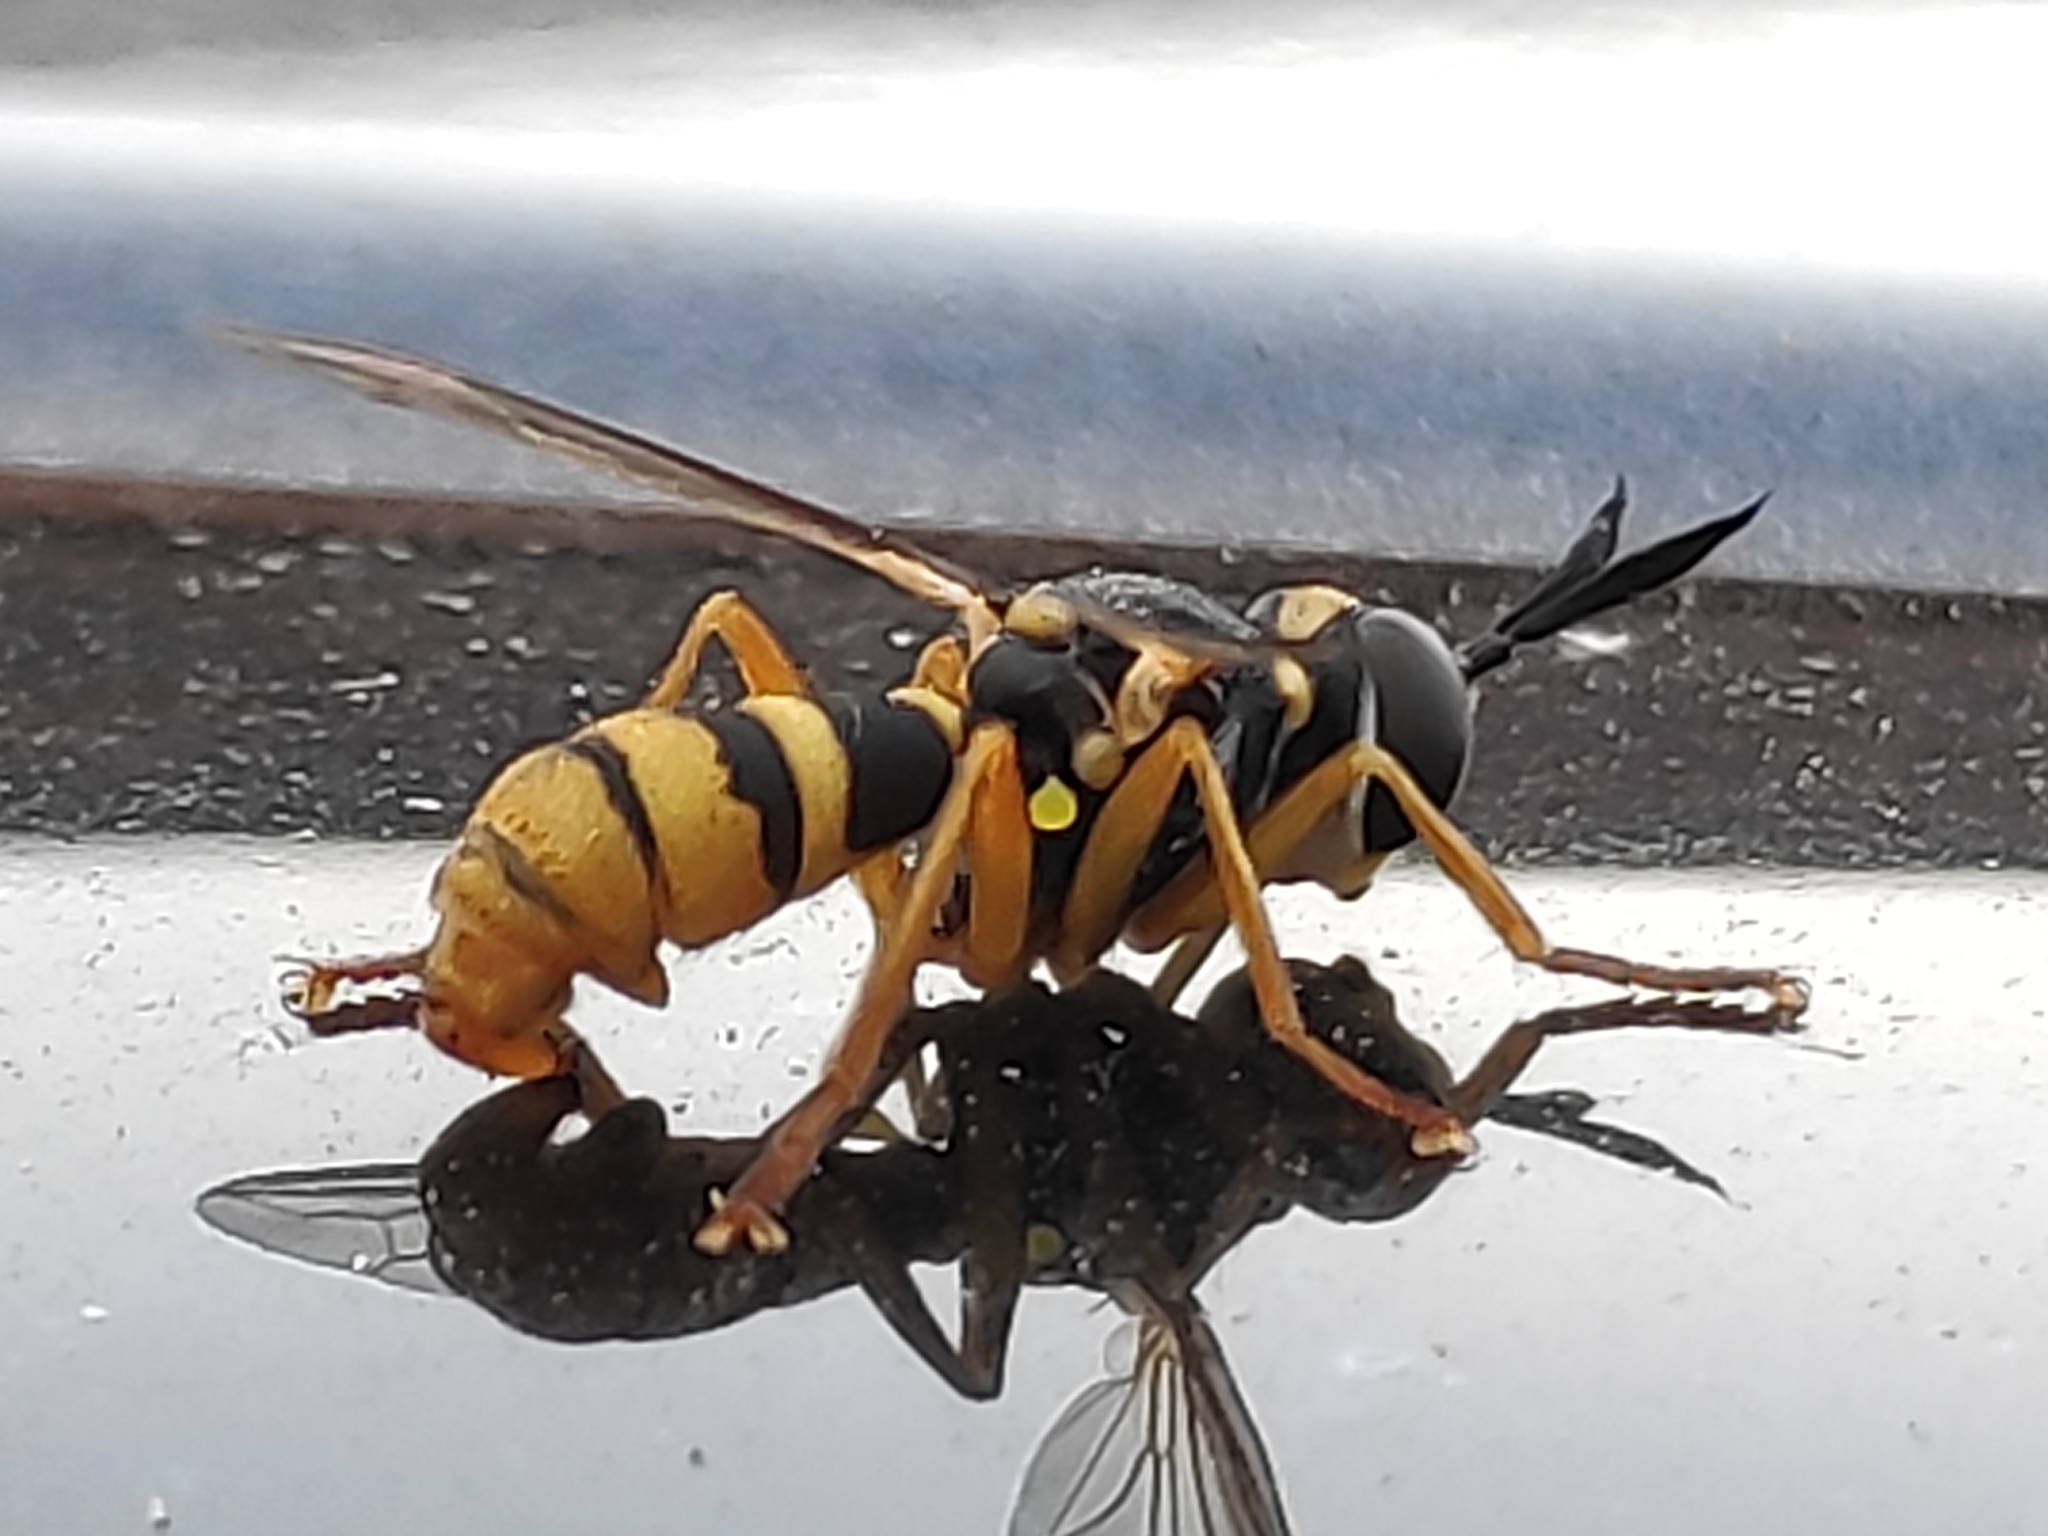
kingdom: Animalia
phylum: Arthropoda
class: Insecta
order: Diptera
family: Conopidae
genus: Leopoldius
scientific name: Leopoldius valvatus
